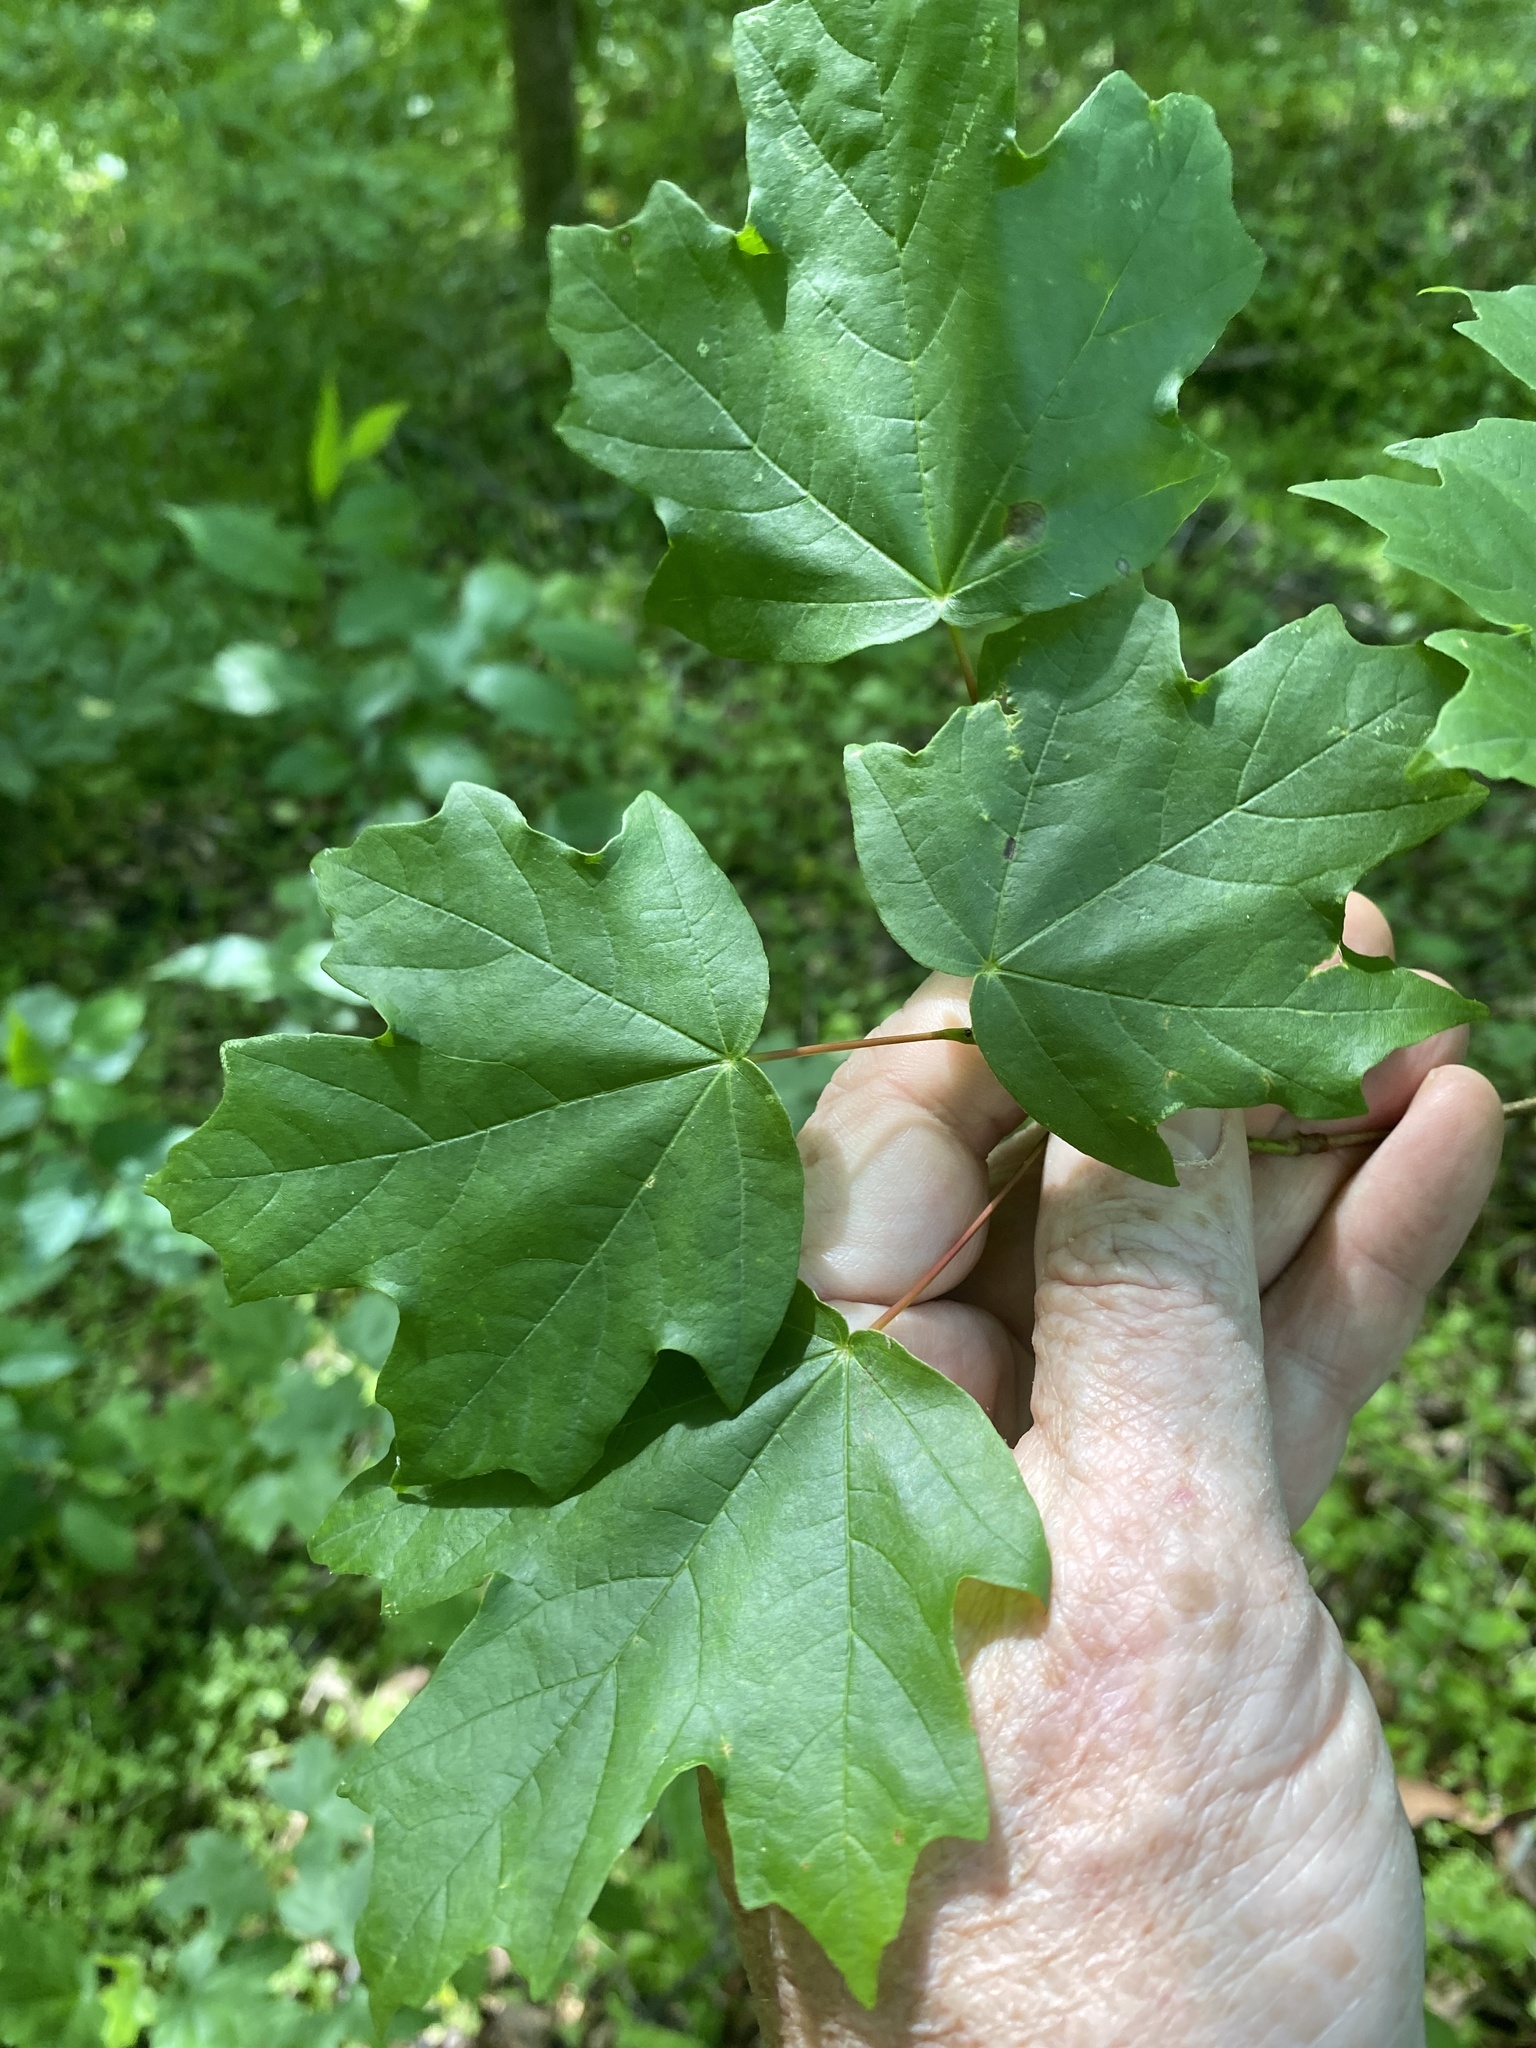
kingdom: Plantae
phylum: Tracheophyta
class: Magnoliopsida
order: Sapindales
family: Sapindaceae
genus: Acer
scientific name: Acer floridanum
